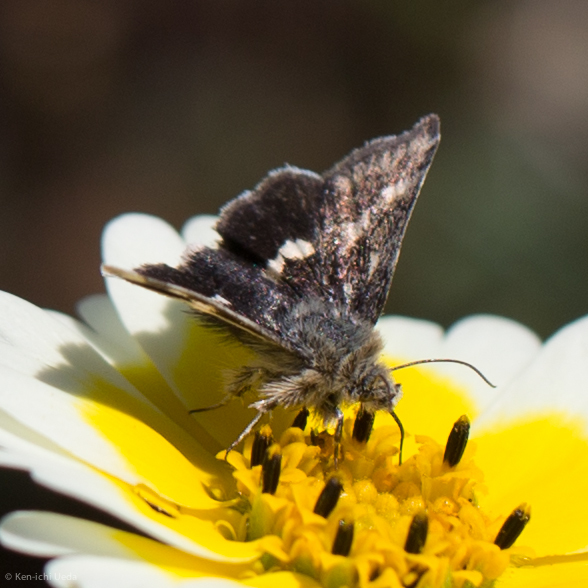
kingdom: Animalia
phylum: Arthropoda
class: Insecta
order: Lepidoptera
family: Noctuidae
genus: Heliothodes
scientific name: Heliothodes diminutiva
